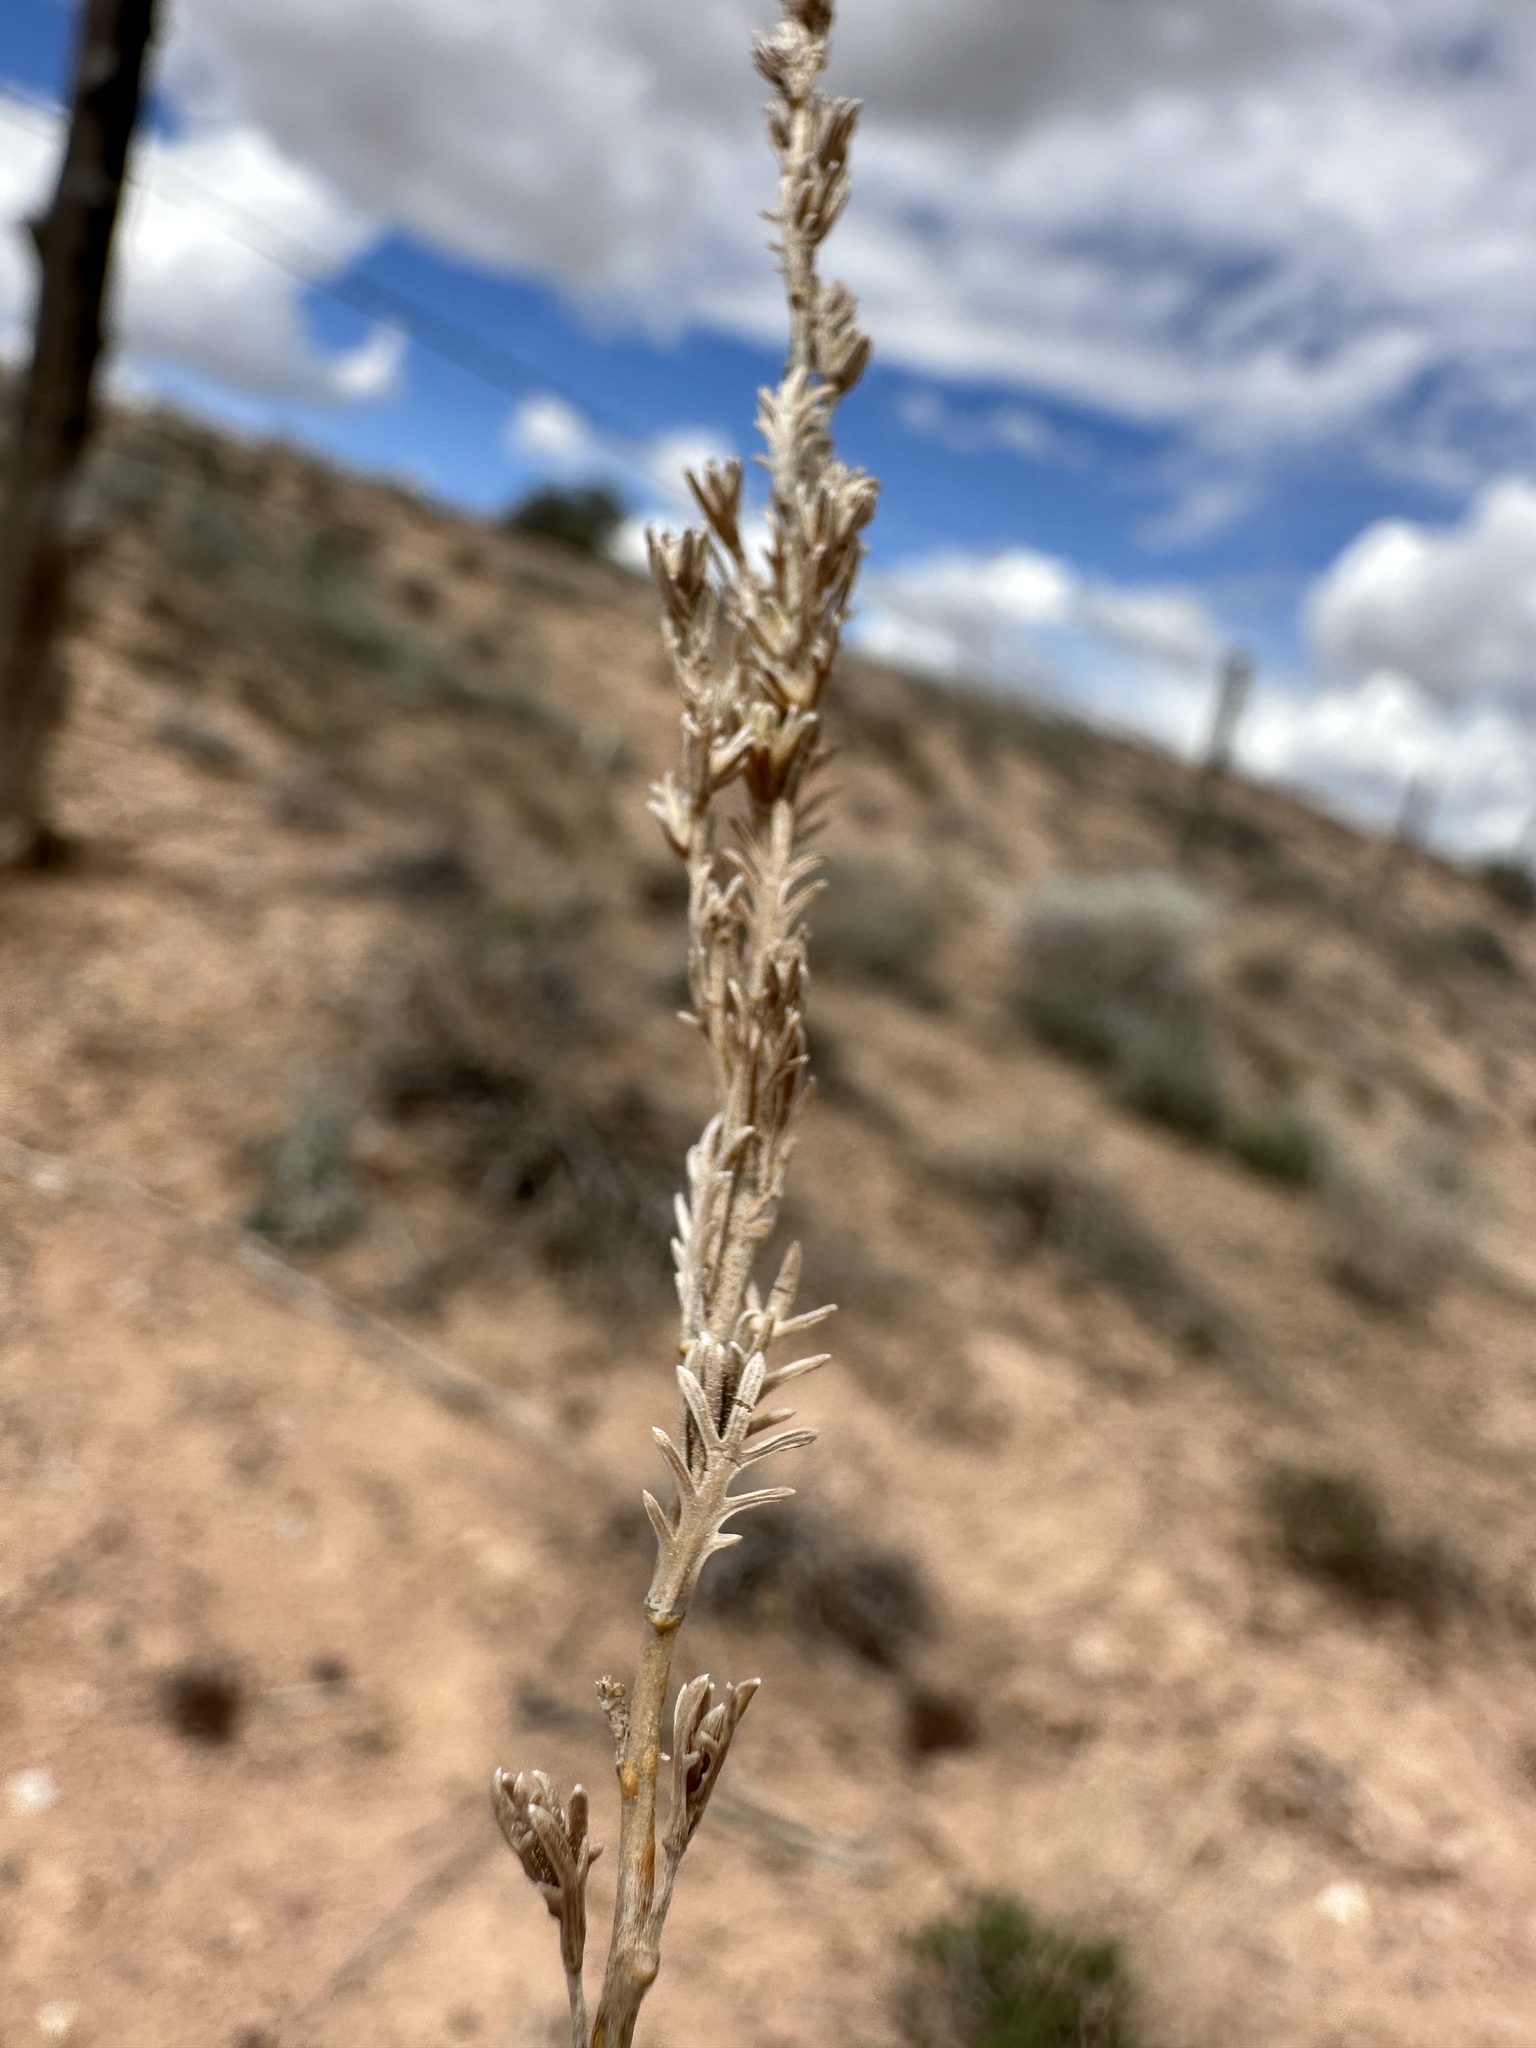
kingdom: Plantae
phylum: Tracheophyta
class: Magnoliopsida
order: Asterales
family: Asteraceae
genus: Artemisia
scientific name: Artemisia pygmaea
